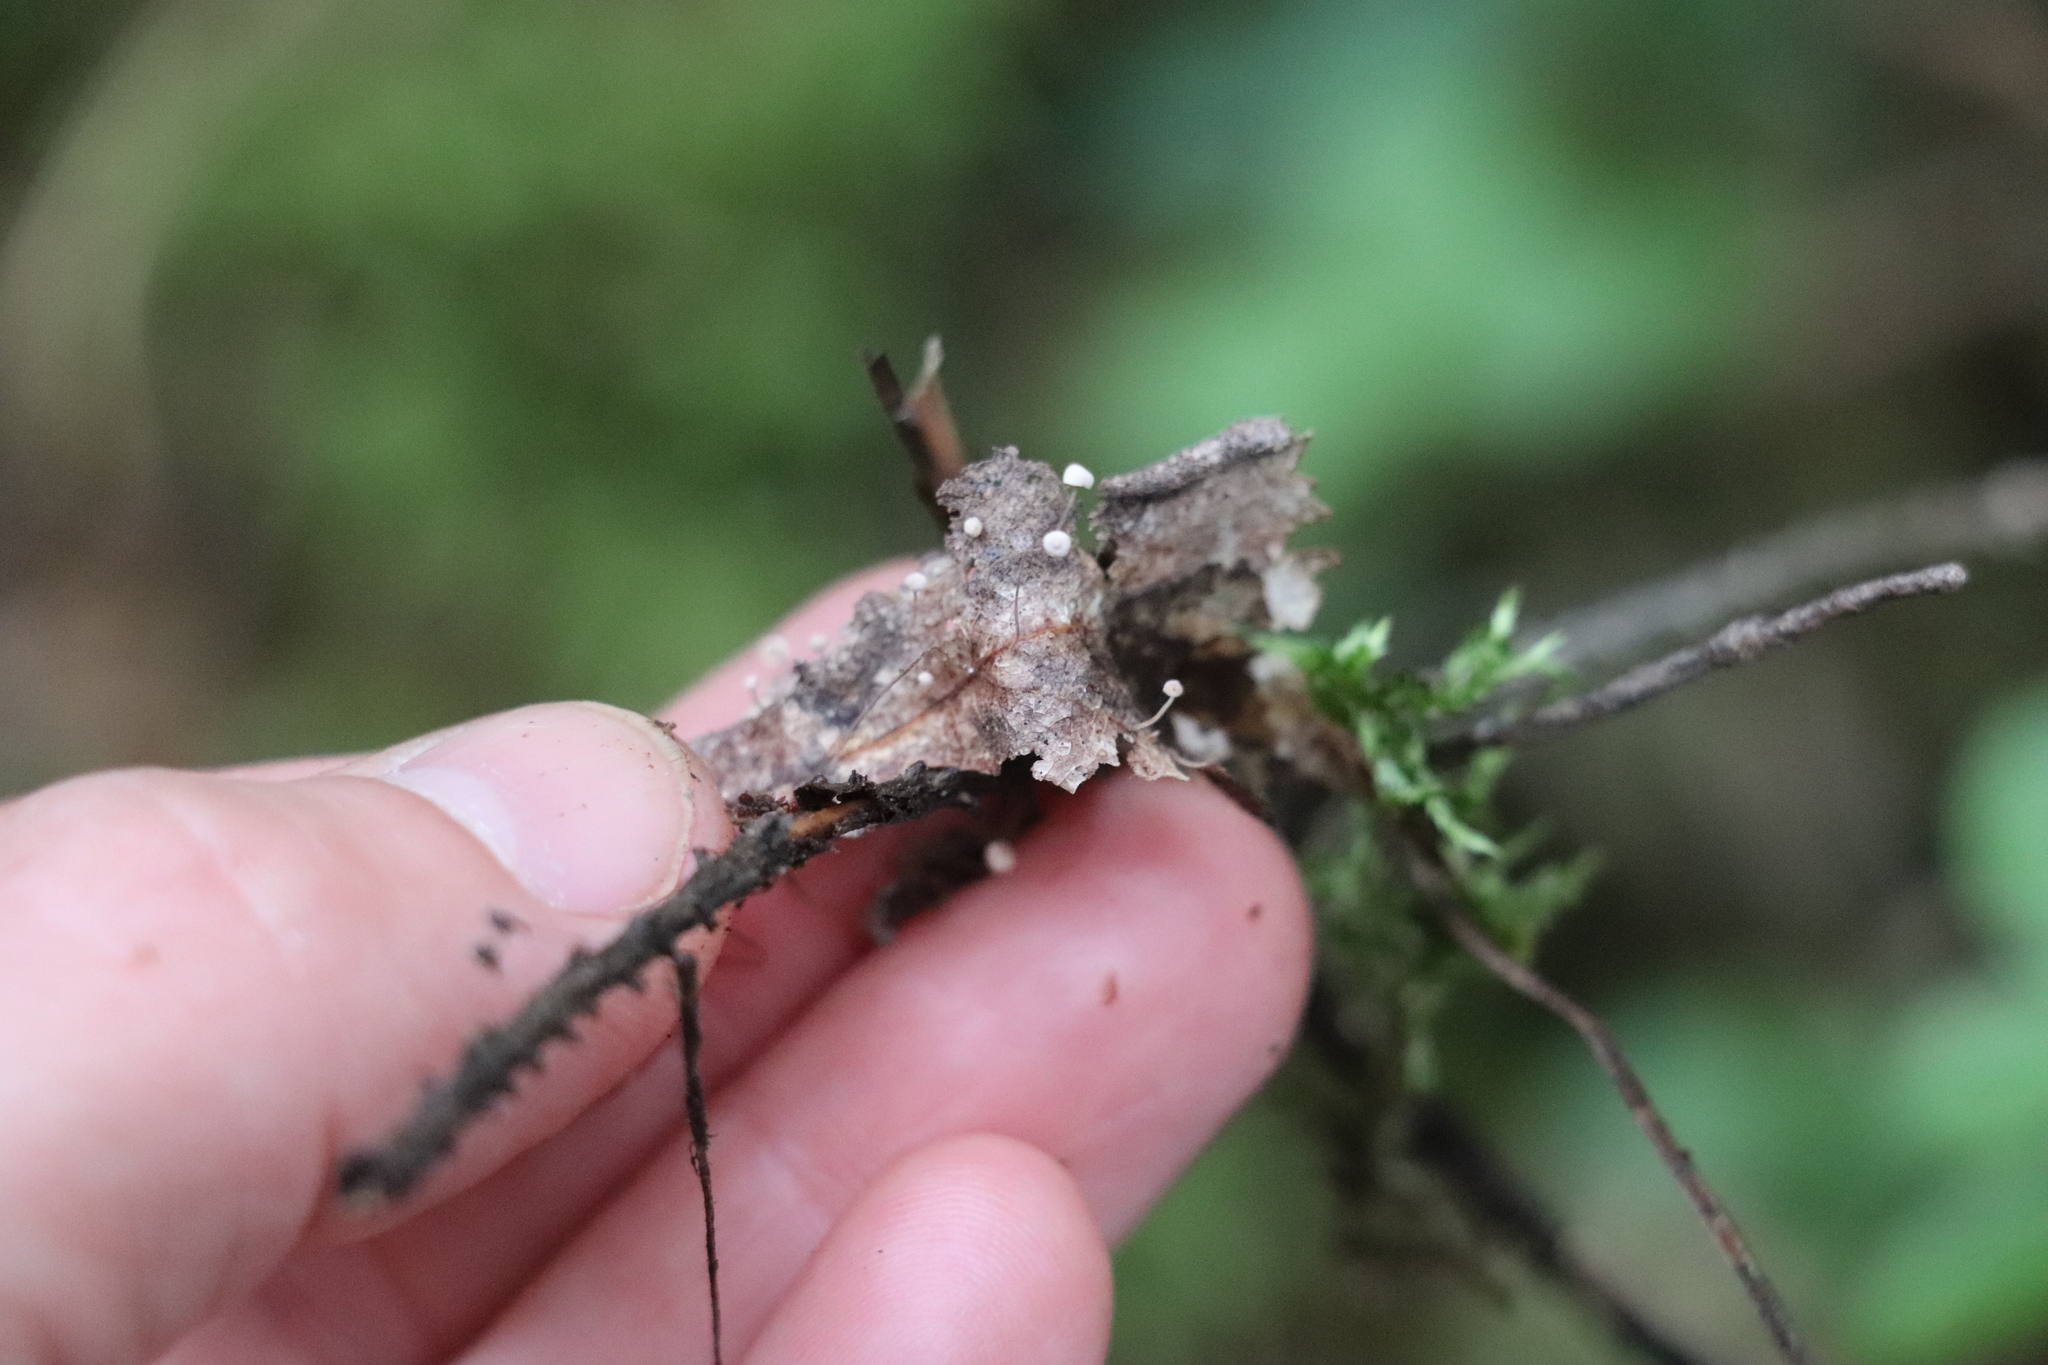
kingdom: Fungi
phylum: Basidiomycota
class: Agaricomycetes
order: Agaricales
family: Marasmiaceae
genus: Marasmius
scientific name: Marasmius minutissimus
